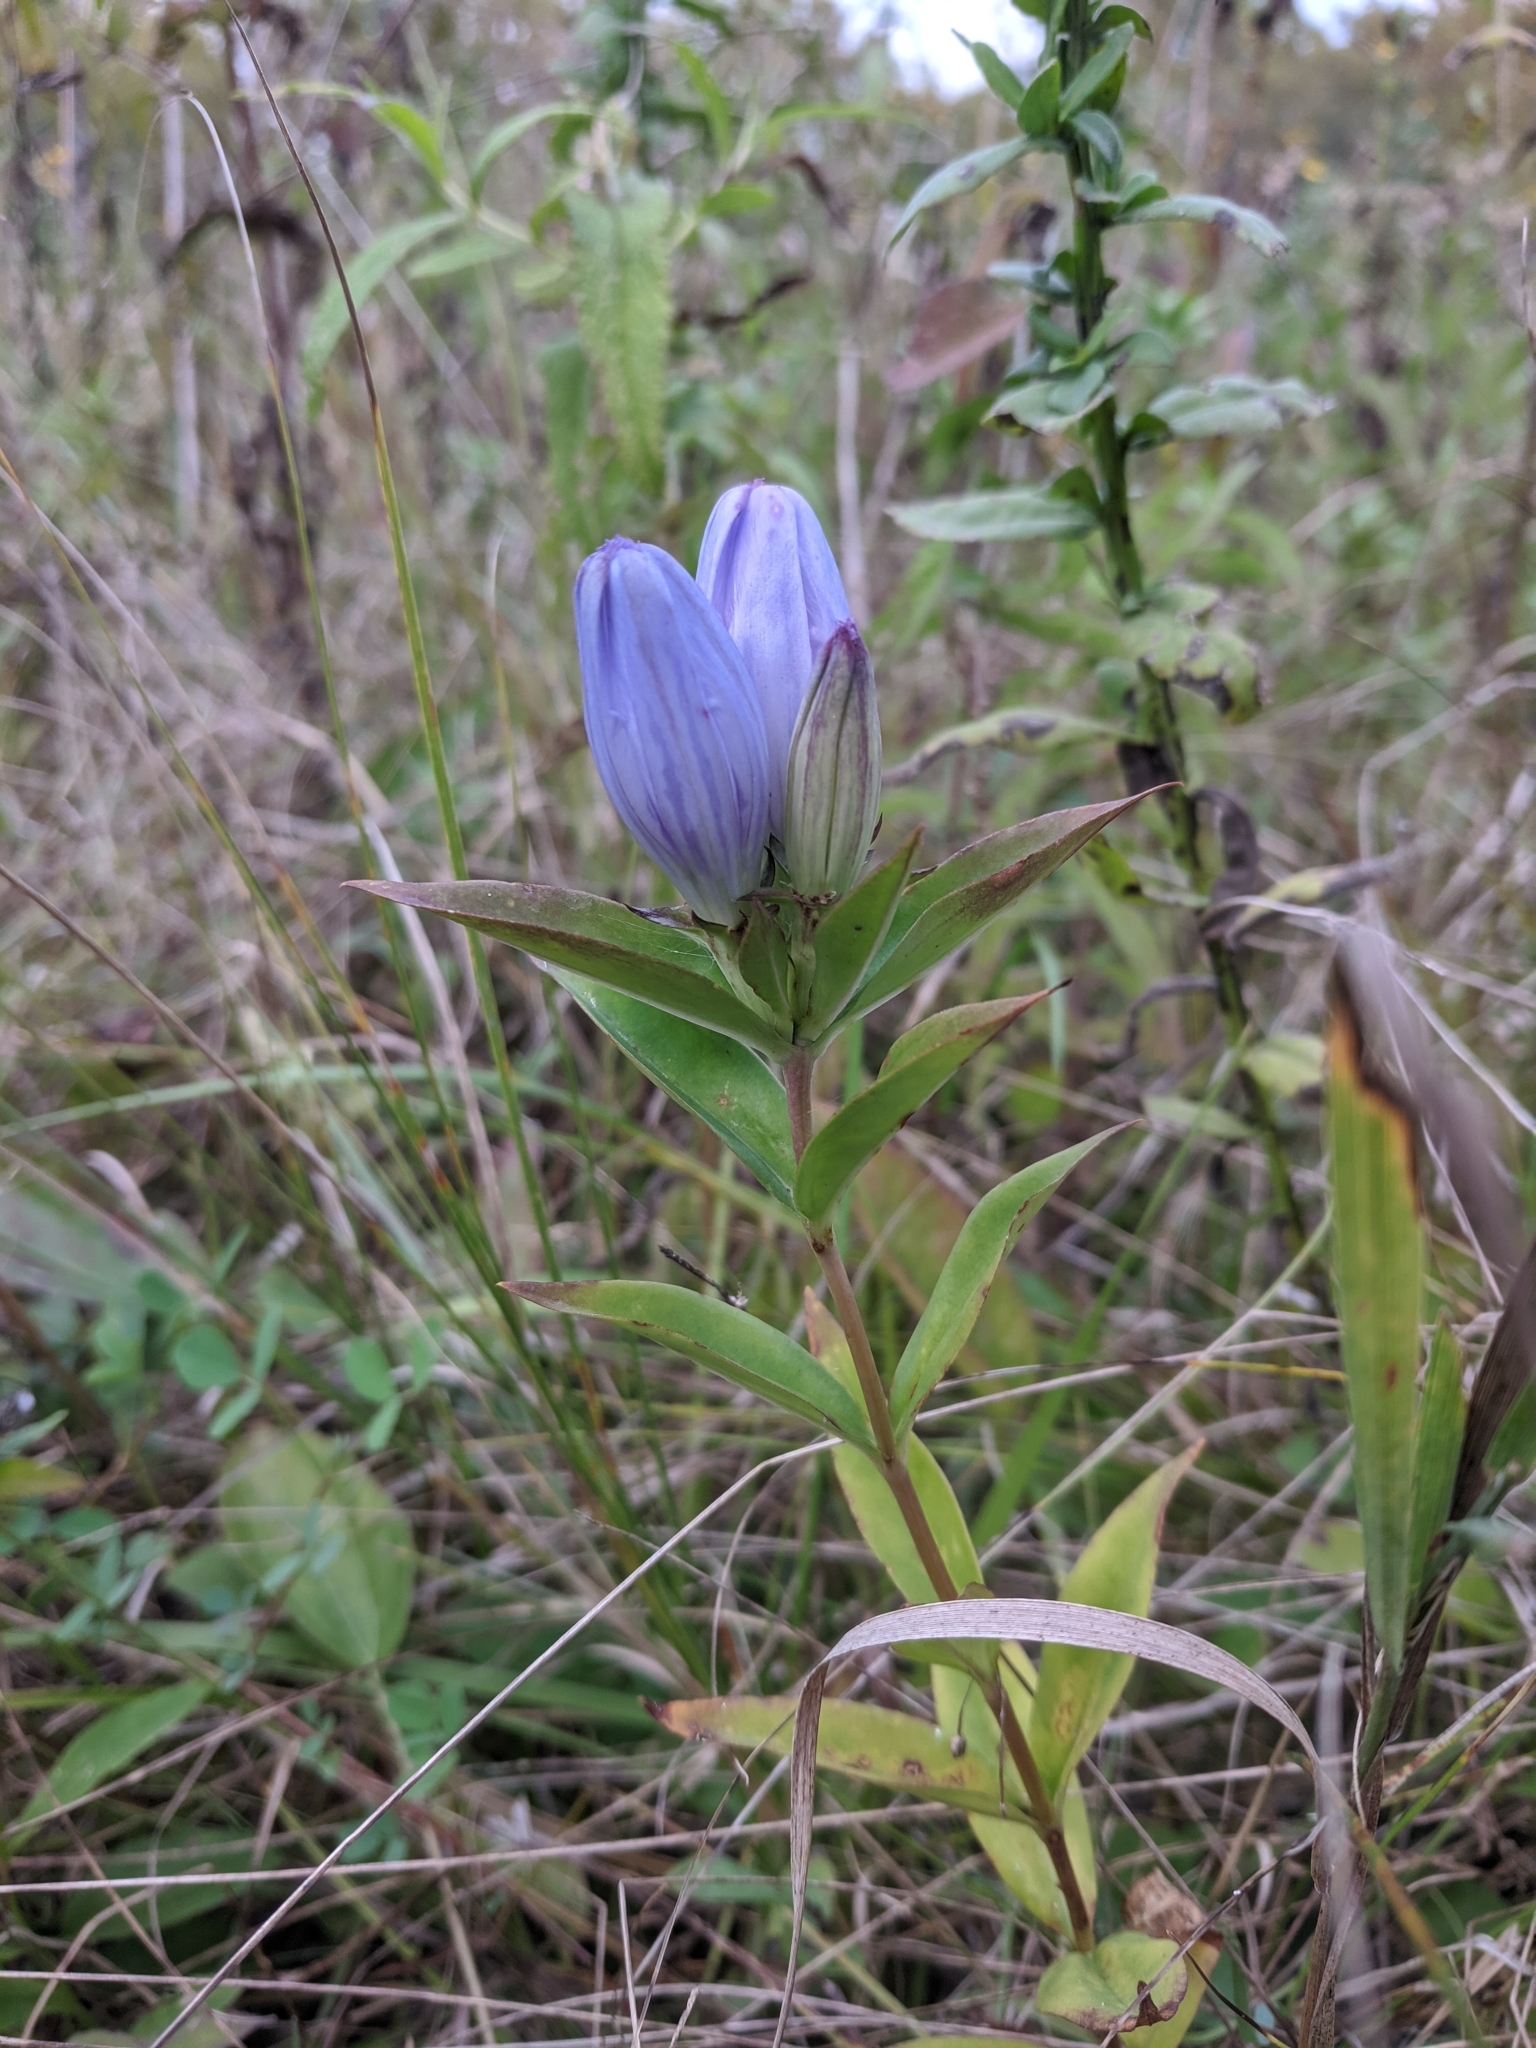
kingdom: Plantae
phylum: Tracheophyta
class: Magnoliopsida
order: Gentianales
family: Gentianaceae
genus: Gentiana
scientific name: Gentiana andrewsii
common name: Bottle gentian
